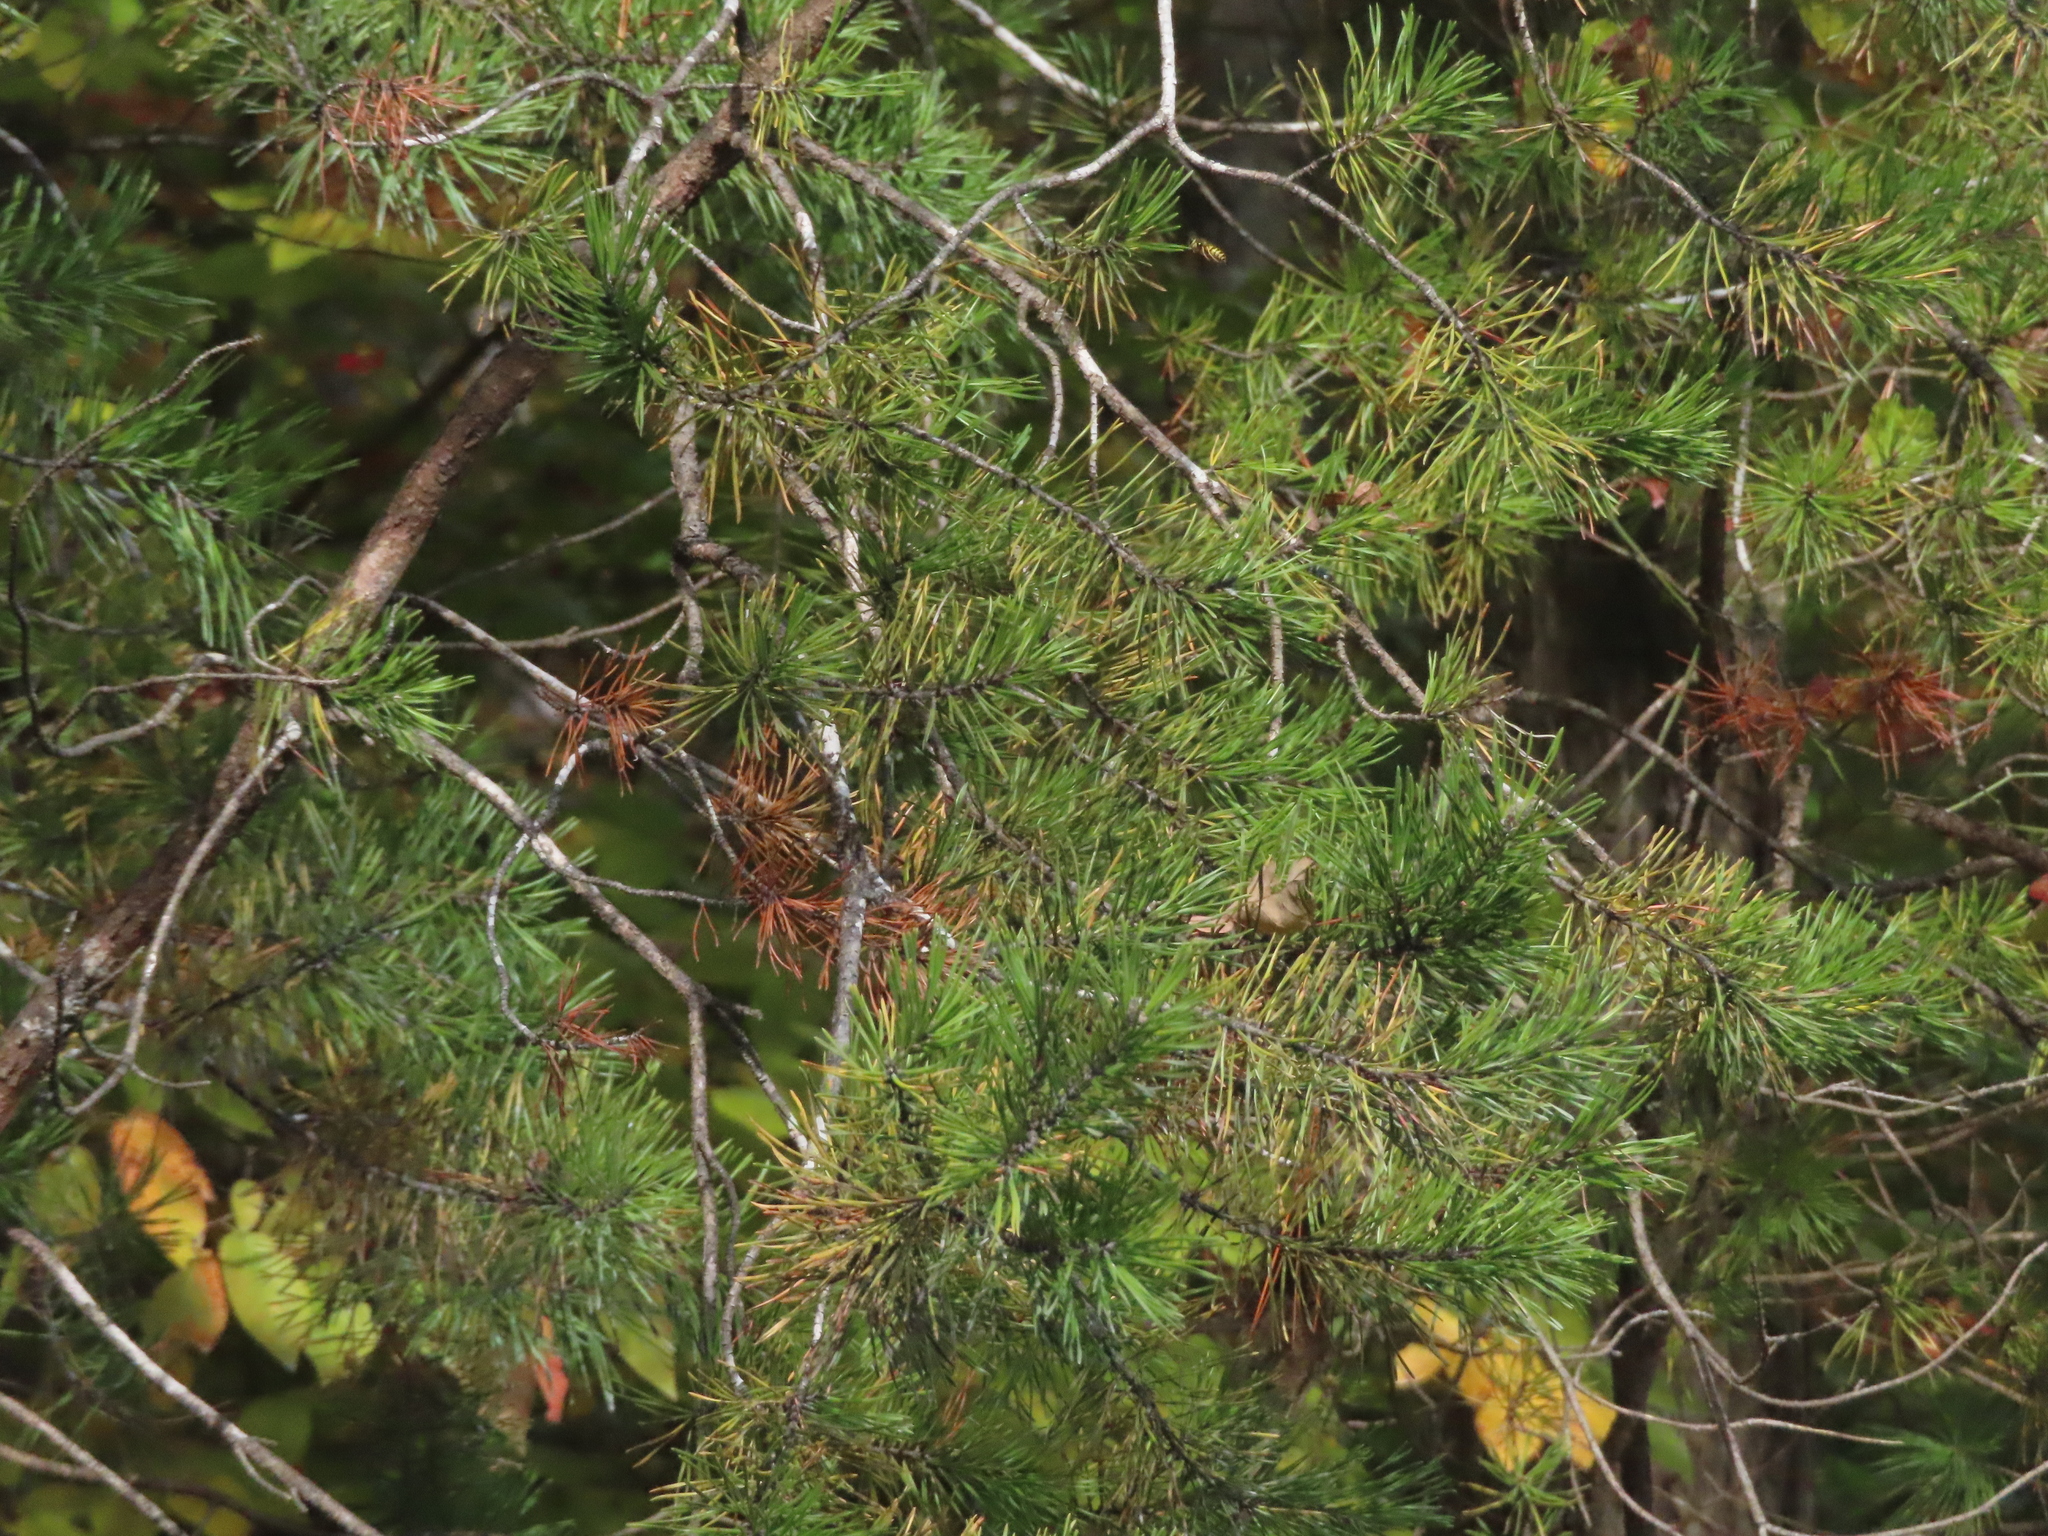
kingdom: Plantae
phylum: Tracheophyta
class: Pinopsida
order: Pinales
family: Pinaceae
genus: Pinus
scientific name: Pinus virginiana
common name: Scrub pine
